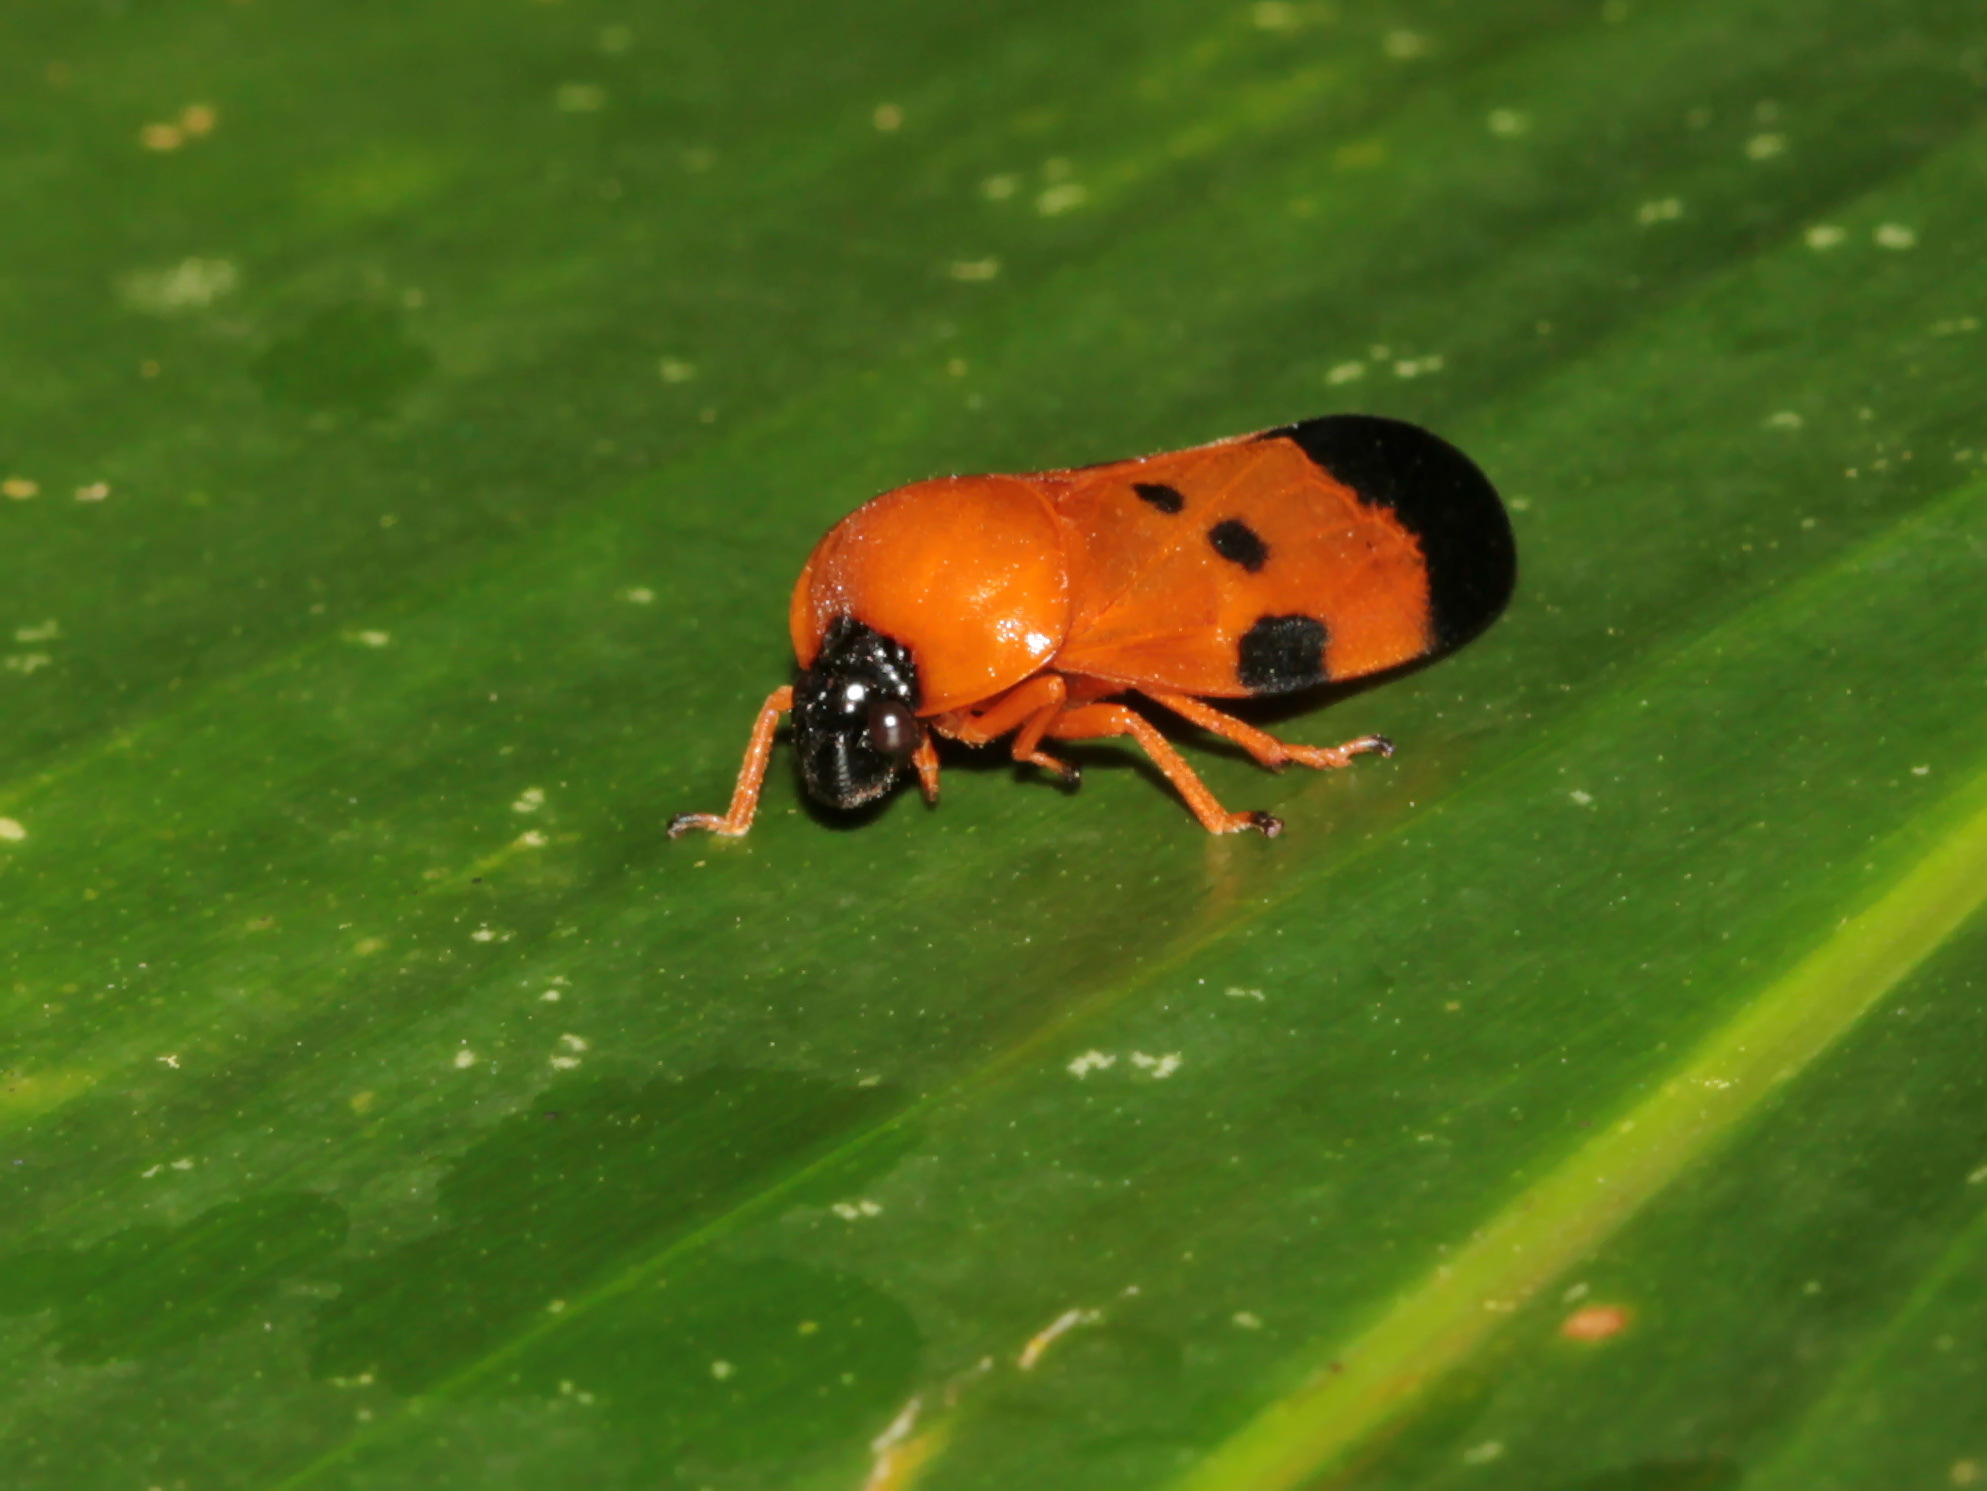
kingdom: Animalia
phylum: Arthropoda
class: Insecta
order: Hemiptera
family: Cercopidae
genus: Cosmoscarta
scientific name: Cosmoscarta miniata
